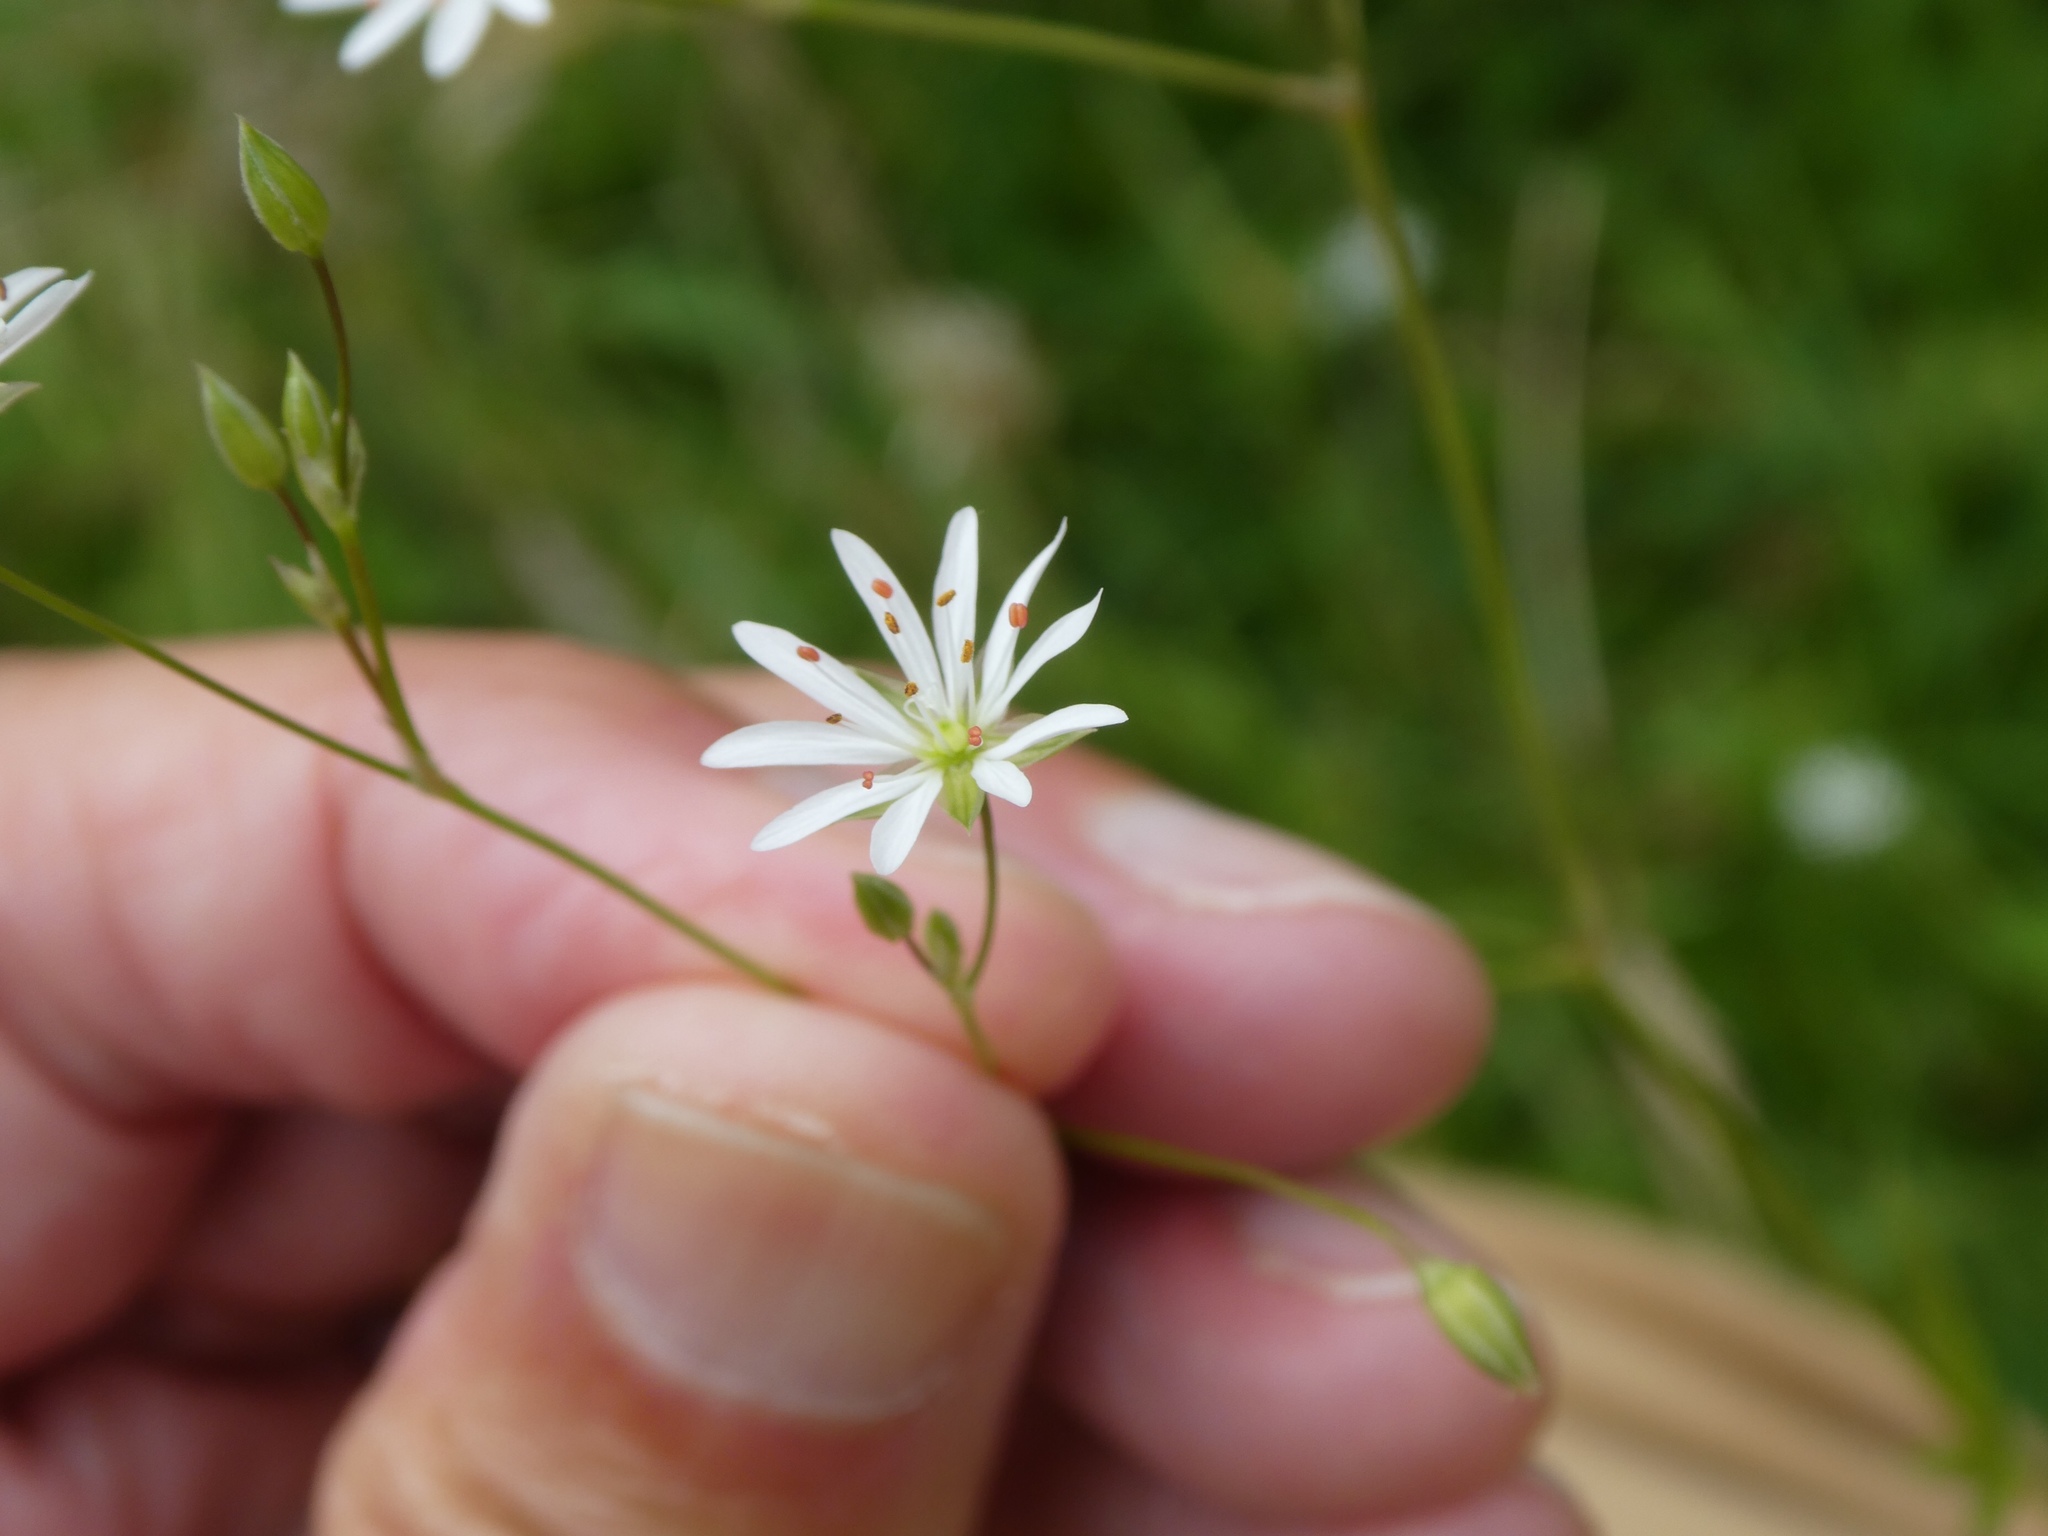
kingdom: Plantae
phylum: Tracheophyta
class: Magnoliopsida
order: Caryophyllales
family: Caryophyllaceae
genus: Stellaria
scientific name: Stellaria graminea
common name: Grass-like starwort
